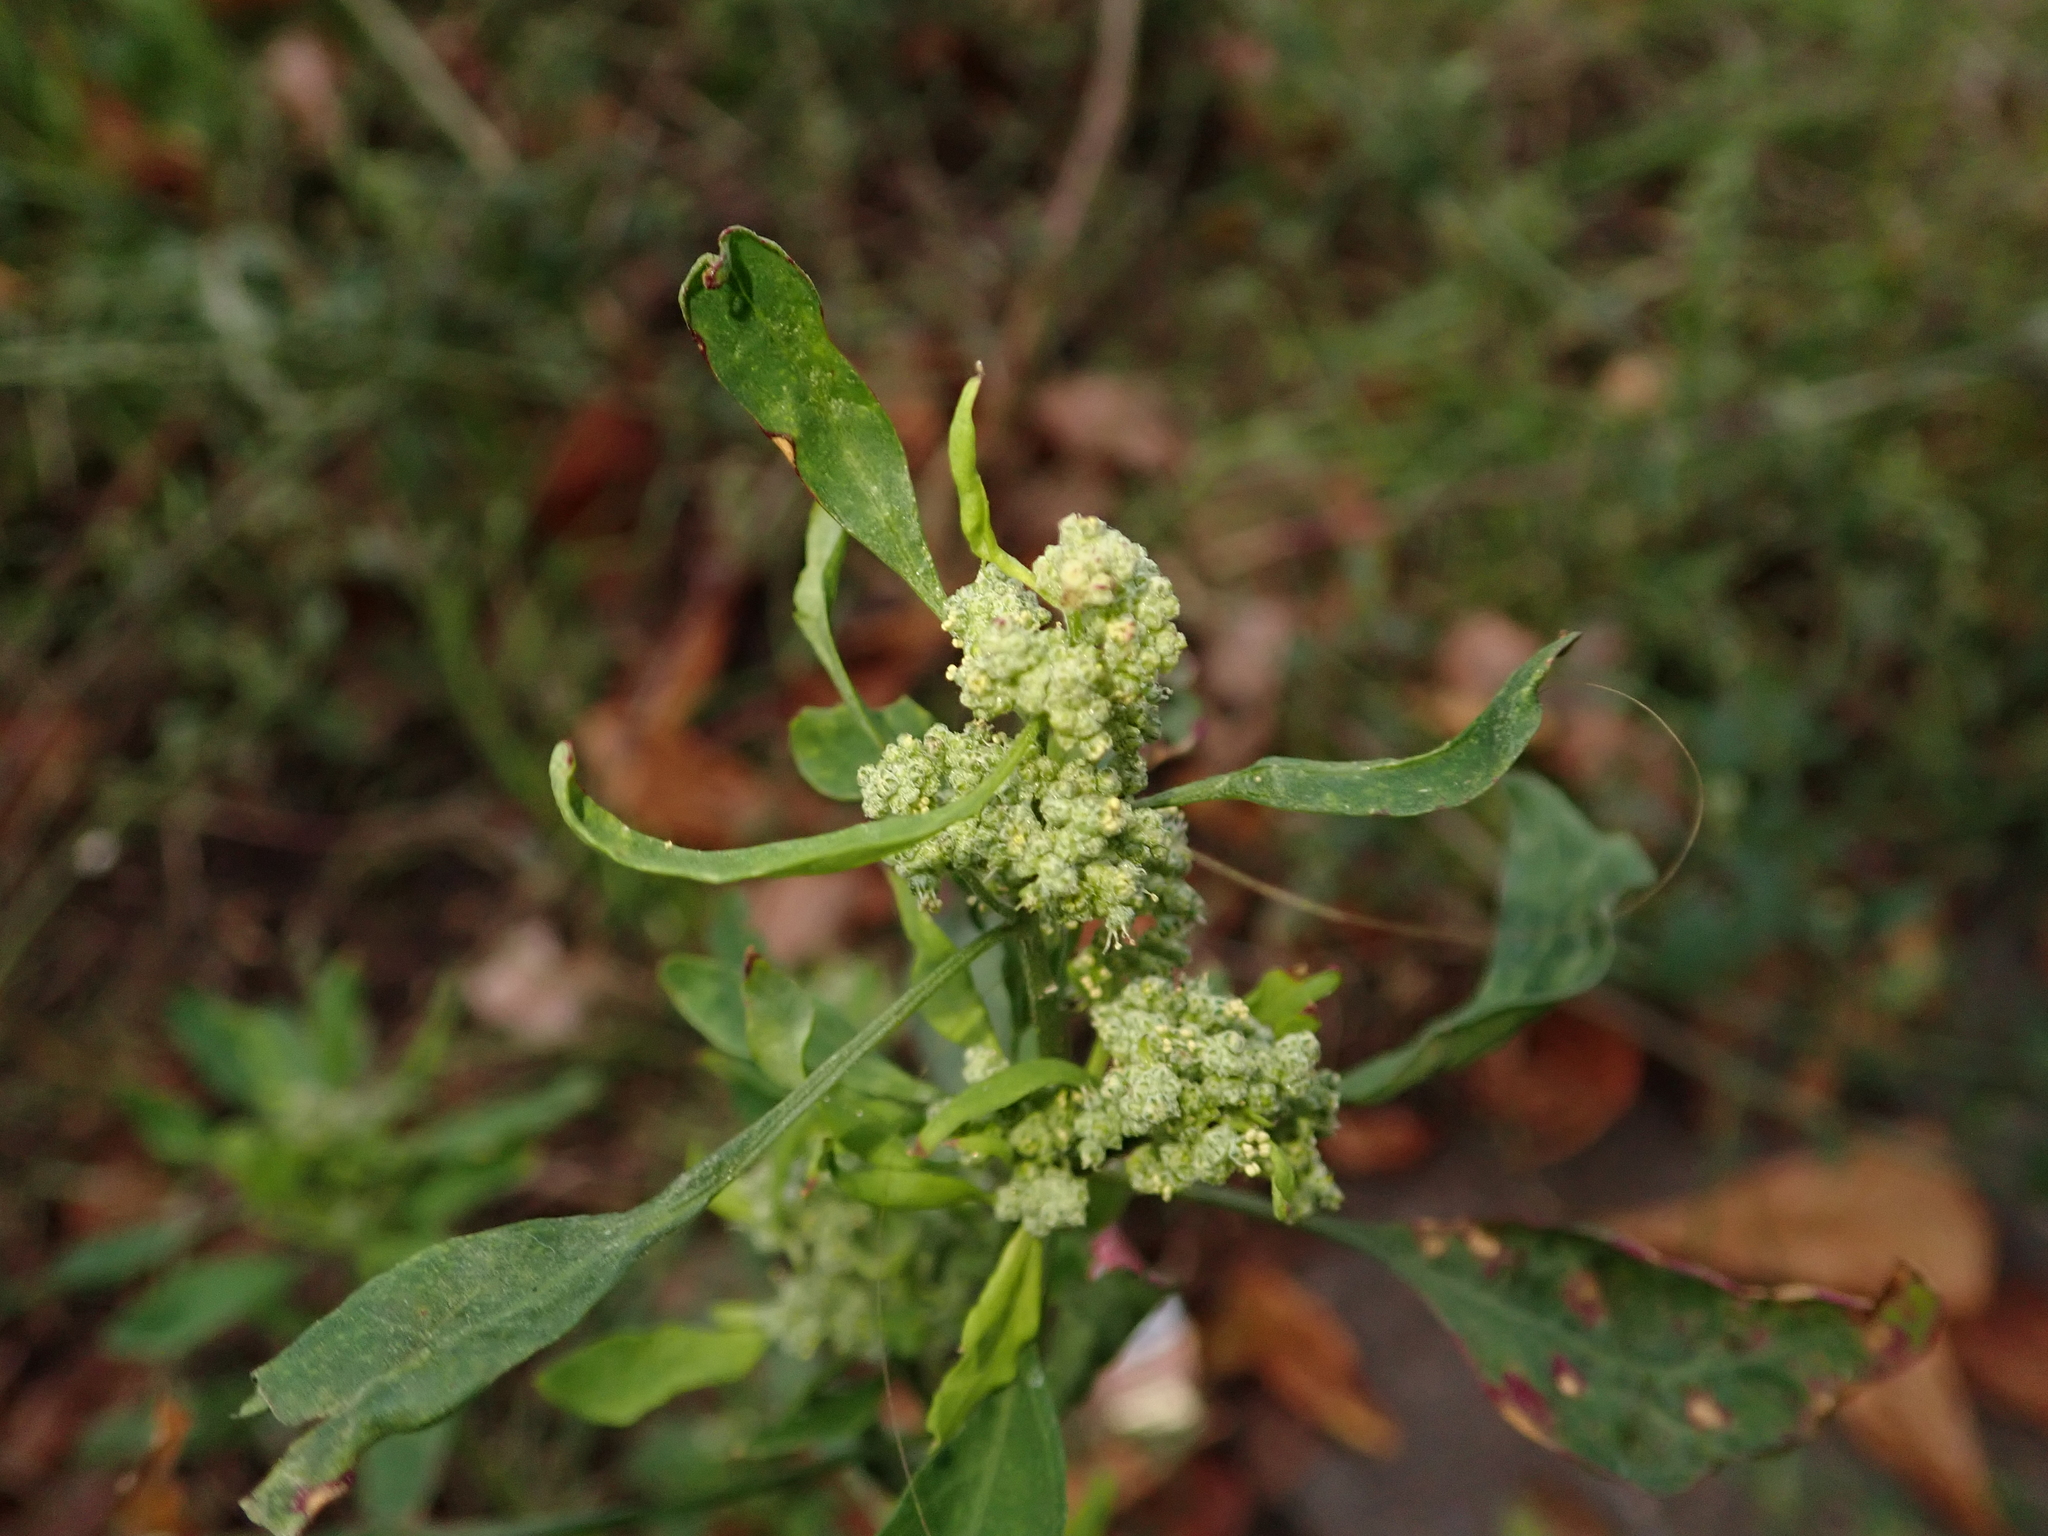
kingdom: Plantae
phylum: Tracheophyta
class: Magnoliopsida
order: Caryophyllales
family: Amaranthaceae
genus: Chenopodium
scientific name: Chenopodium album
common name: Fat-hen
